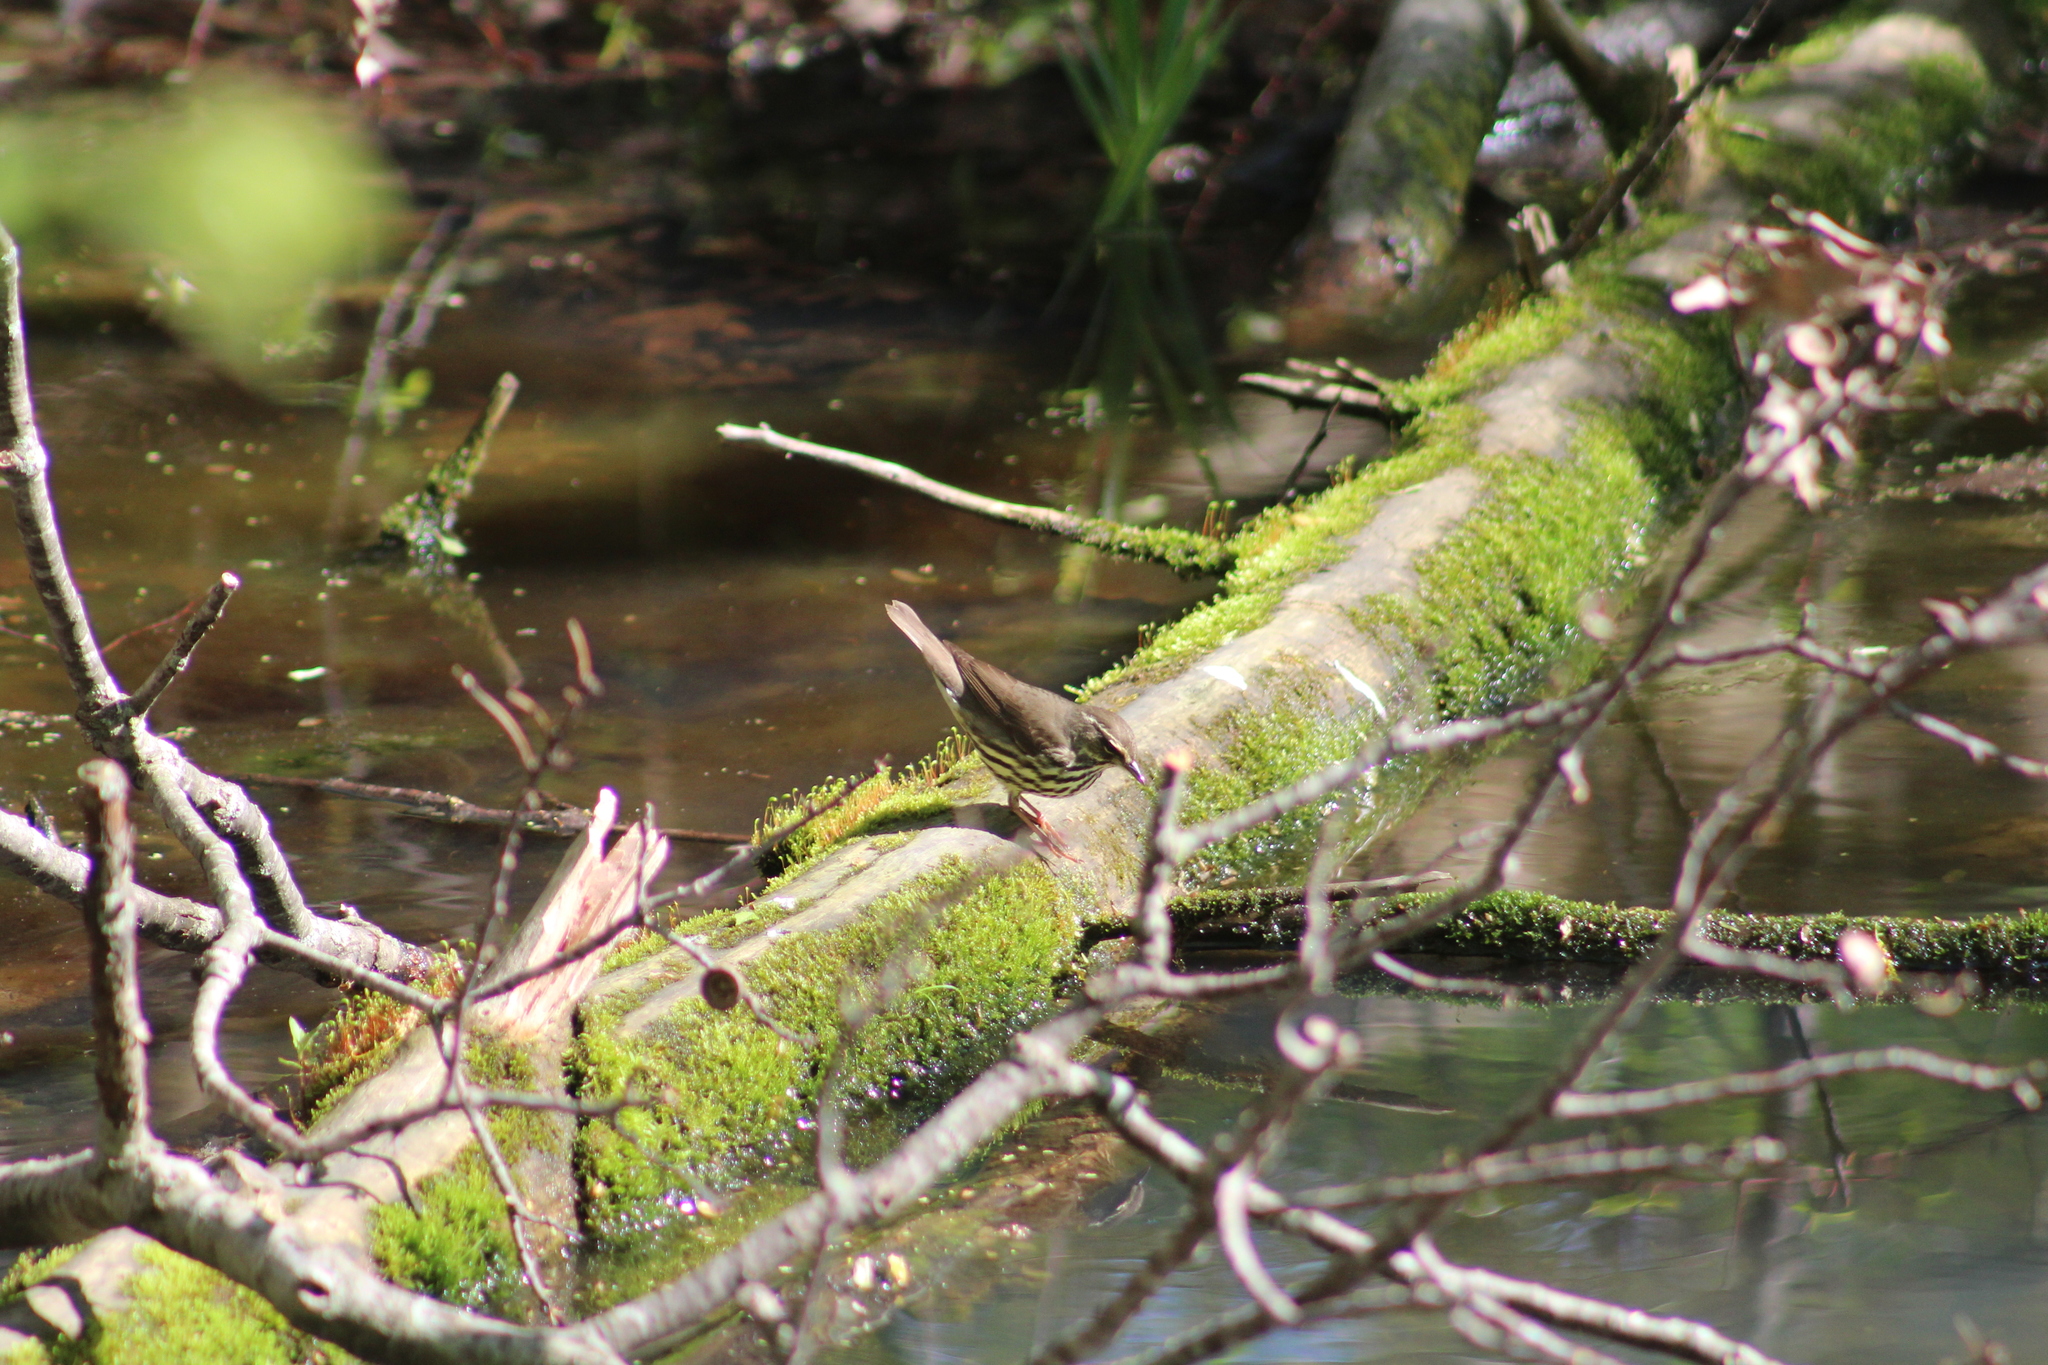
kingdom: Animalia
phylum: Chordata
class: Aves
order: Passeriformes
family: Parulidae
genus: Parkesia
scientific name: Parkesia noveboracensis
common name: Northern waterthrush
